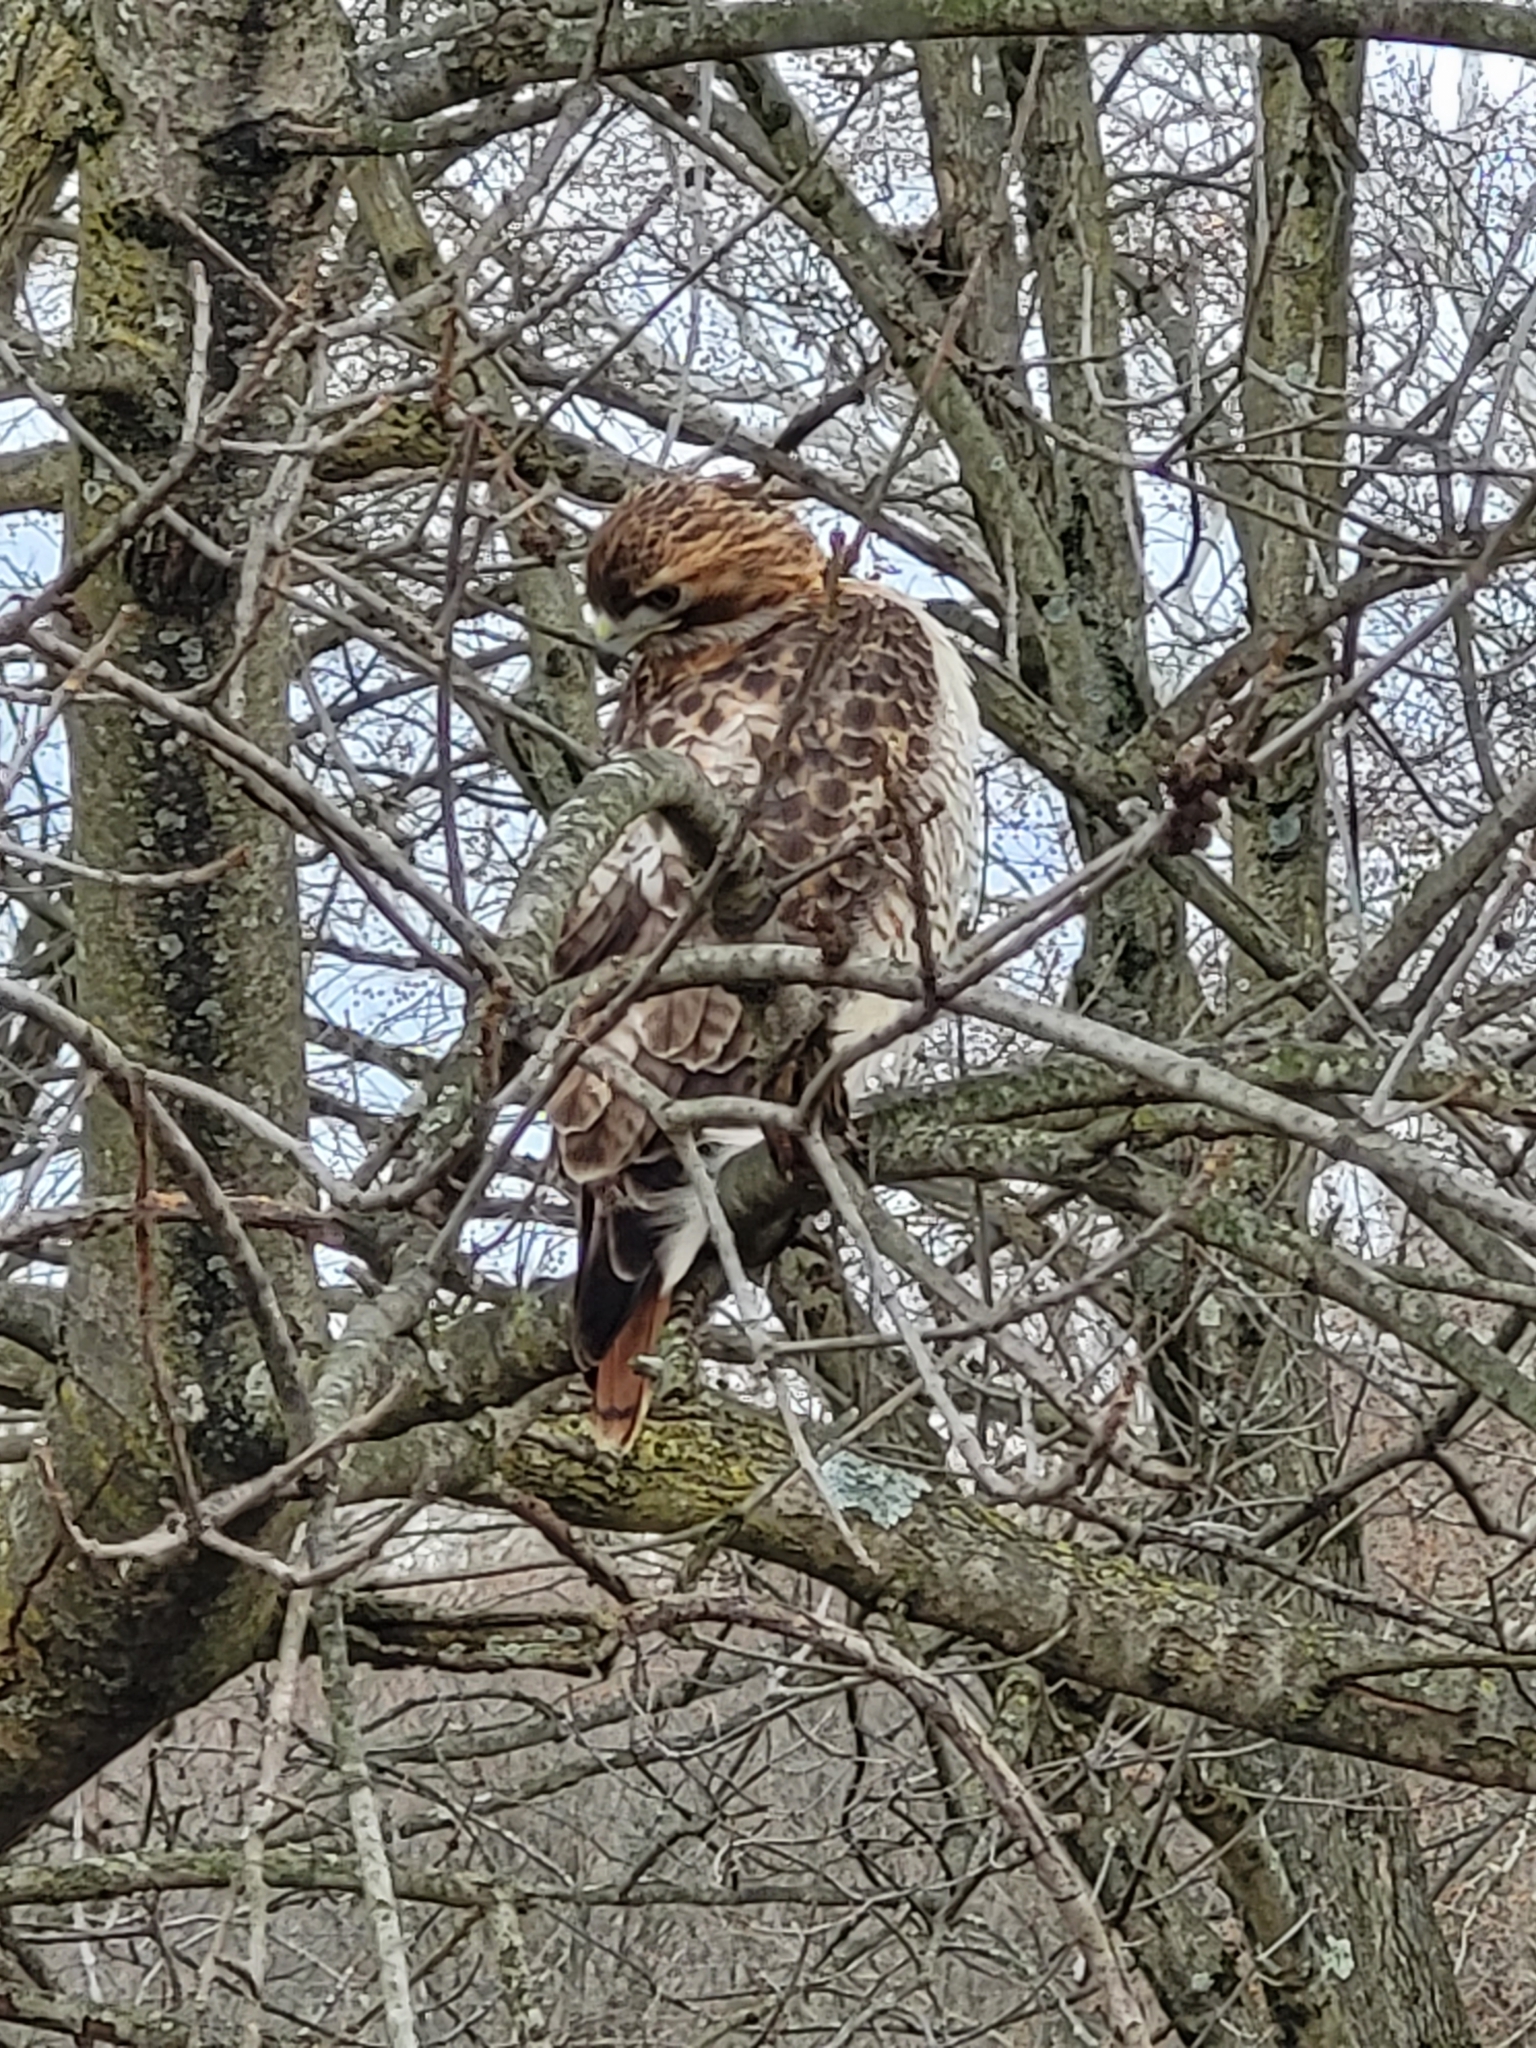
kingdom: Animalia
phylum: Chordata
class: Aves
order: Accipitriformes
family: Accipitridae
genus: Buteo
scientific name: Buteo jamaicensis
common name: Red-tailed hawk
